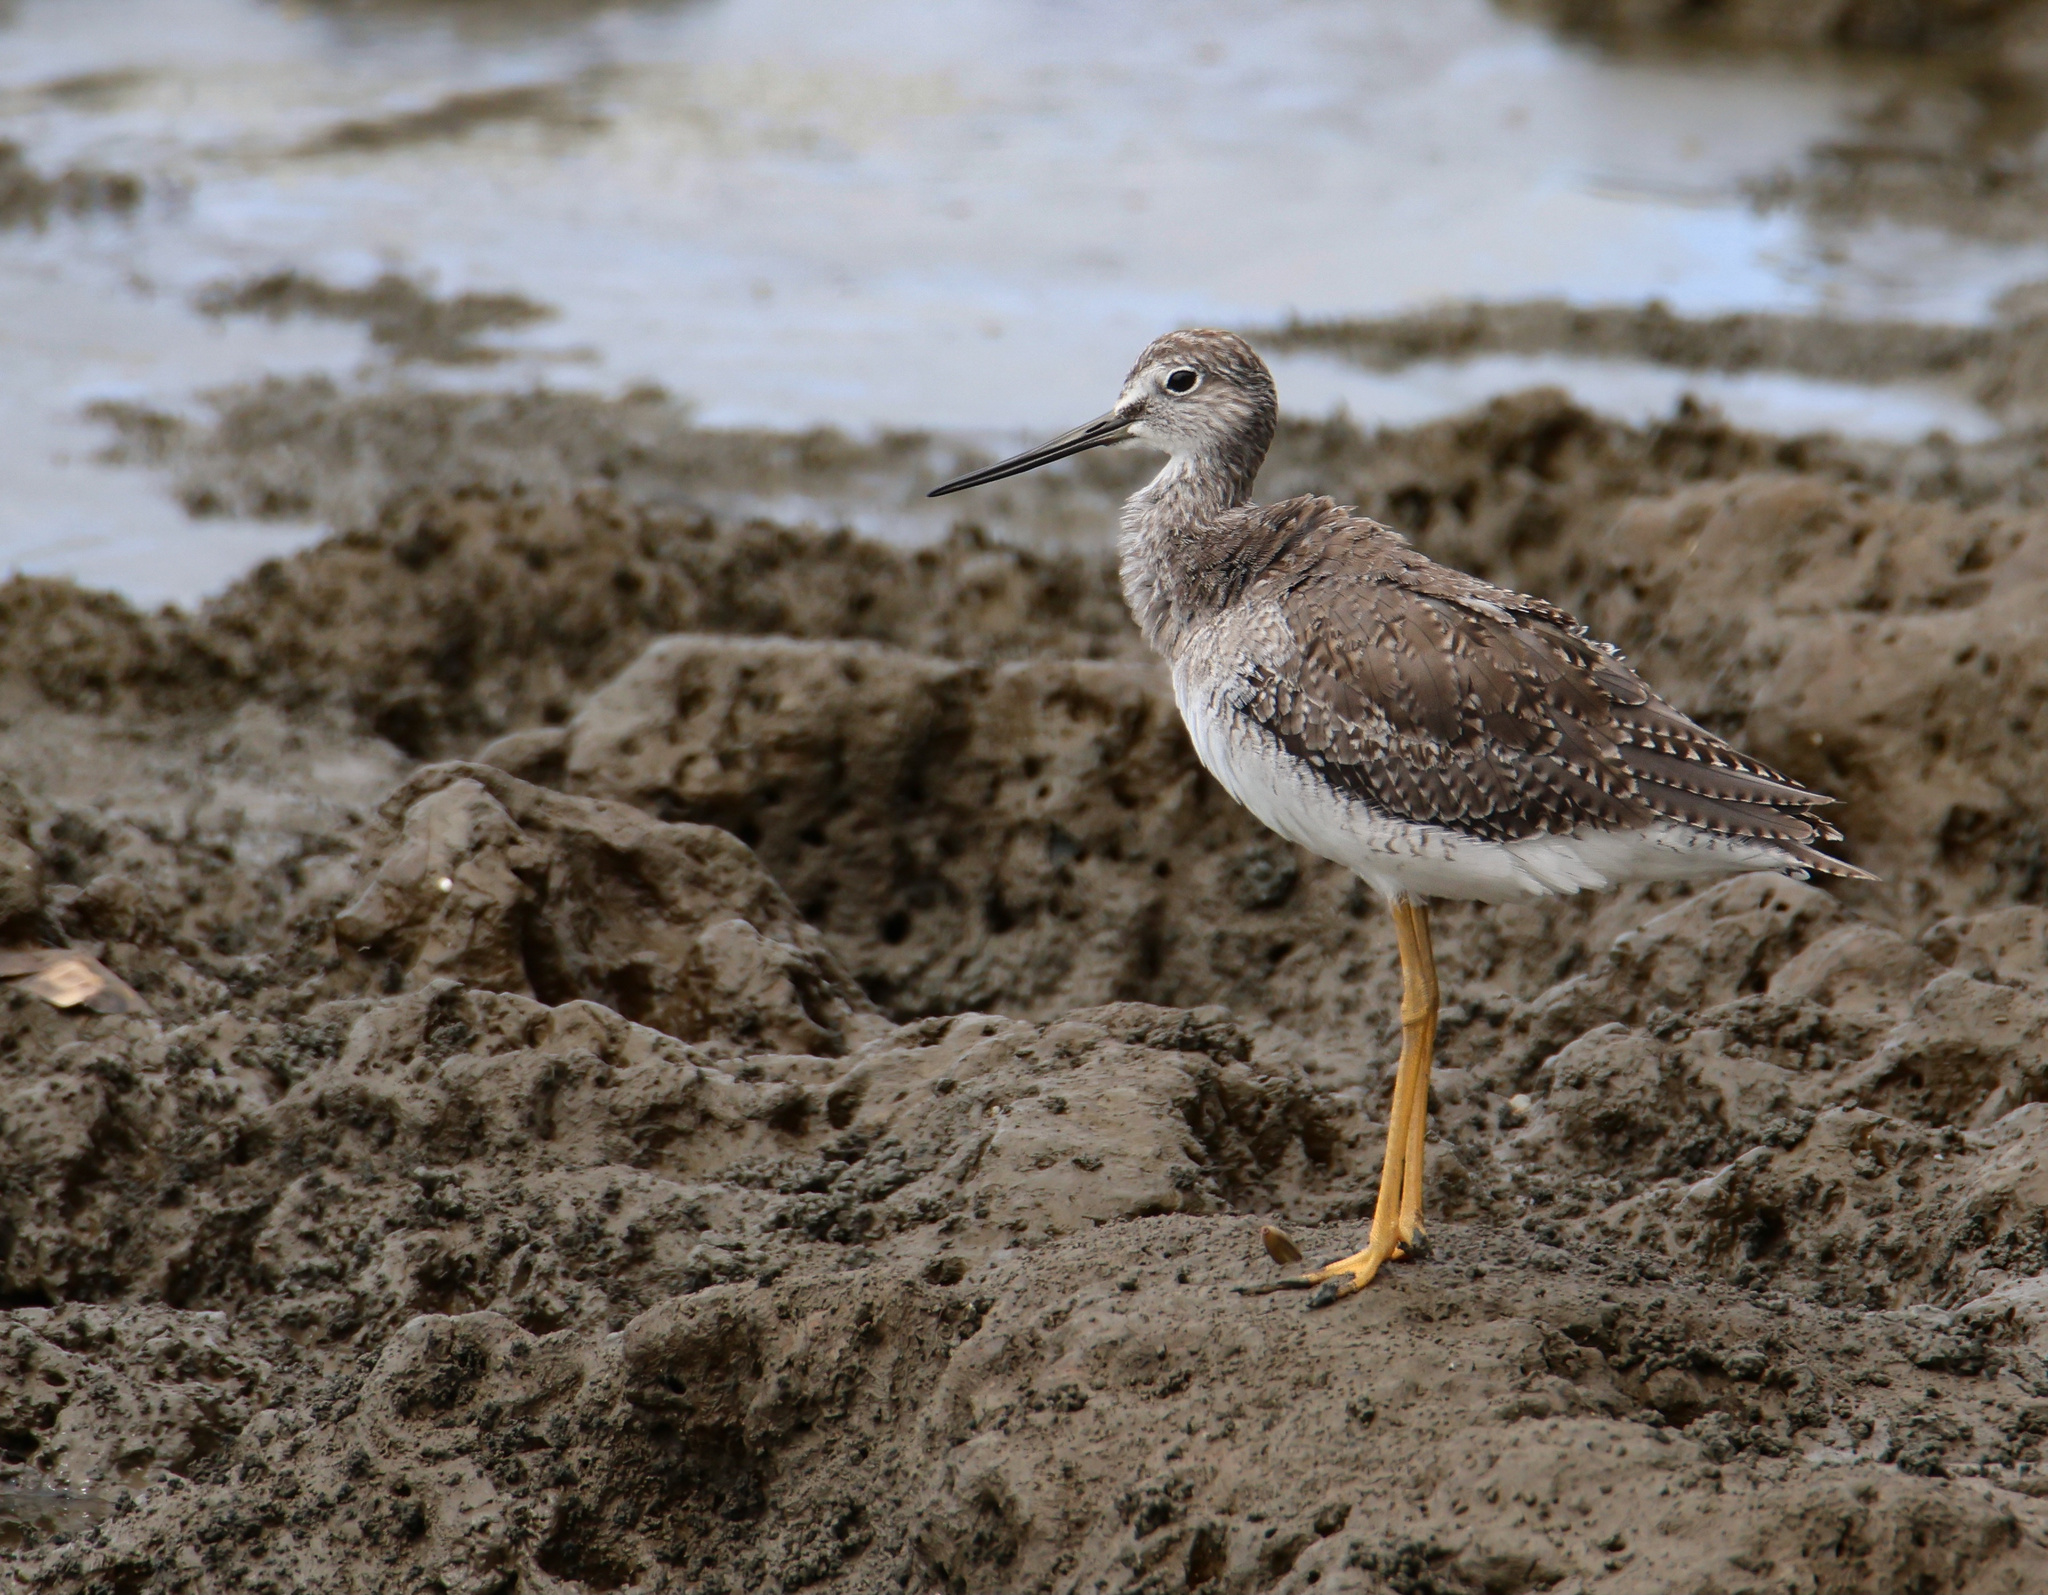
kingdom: Animalia
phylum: Chordata
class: Aves
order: Charadriiformes
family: Scolopacidae
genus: Tringa
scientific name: Tringa melanoleuca
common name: Greater yellowlegs
